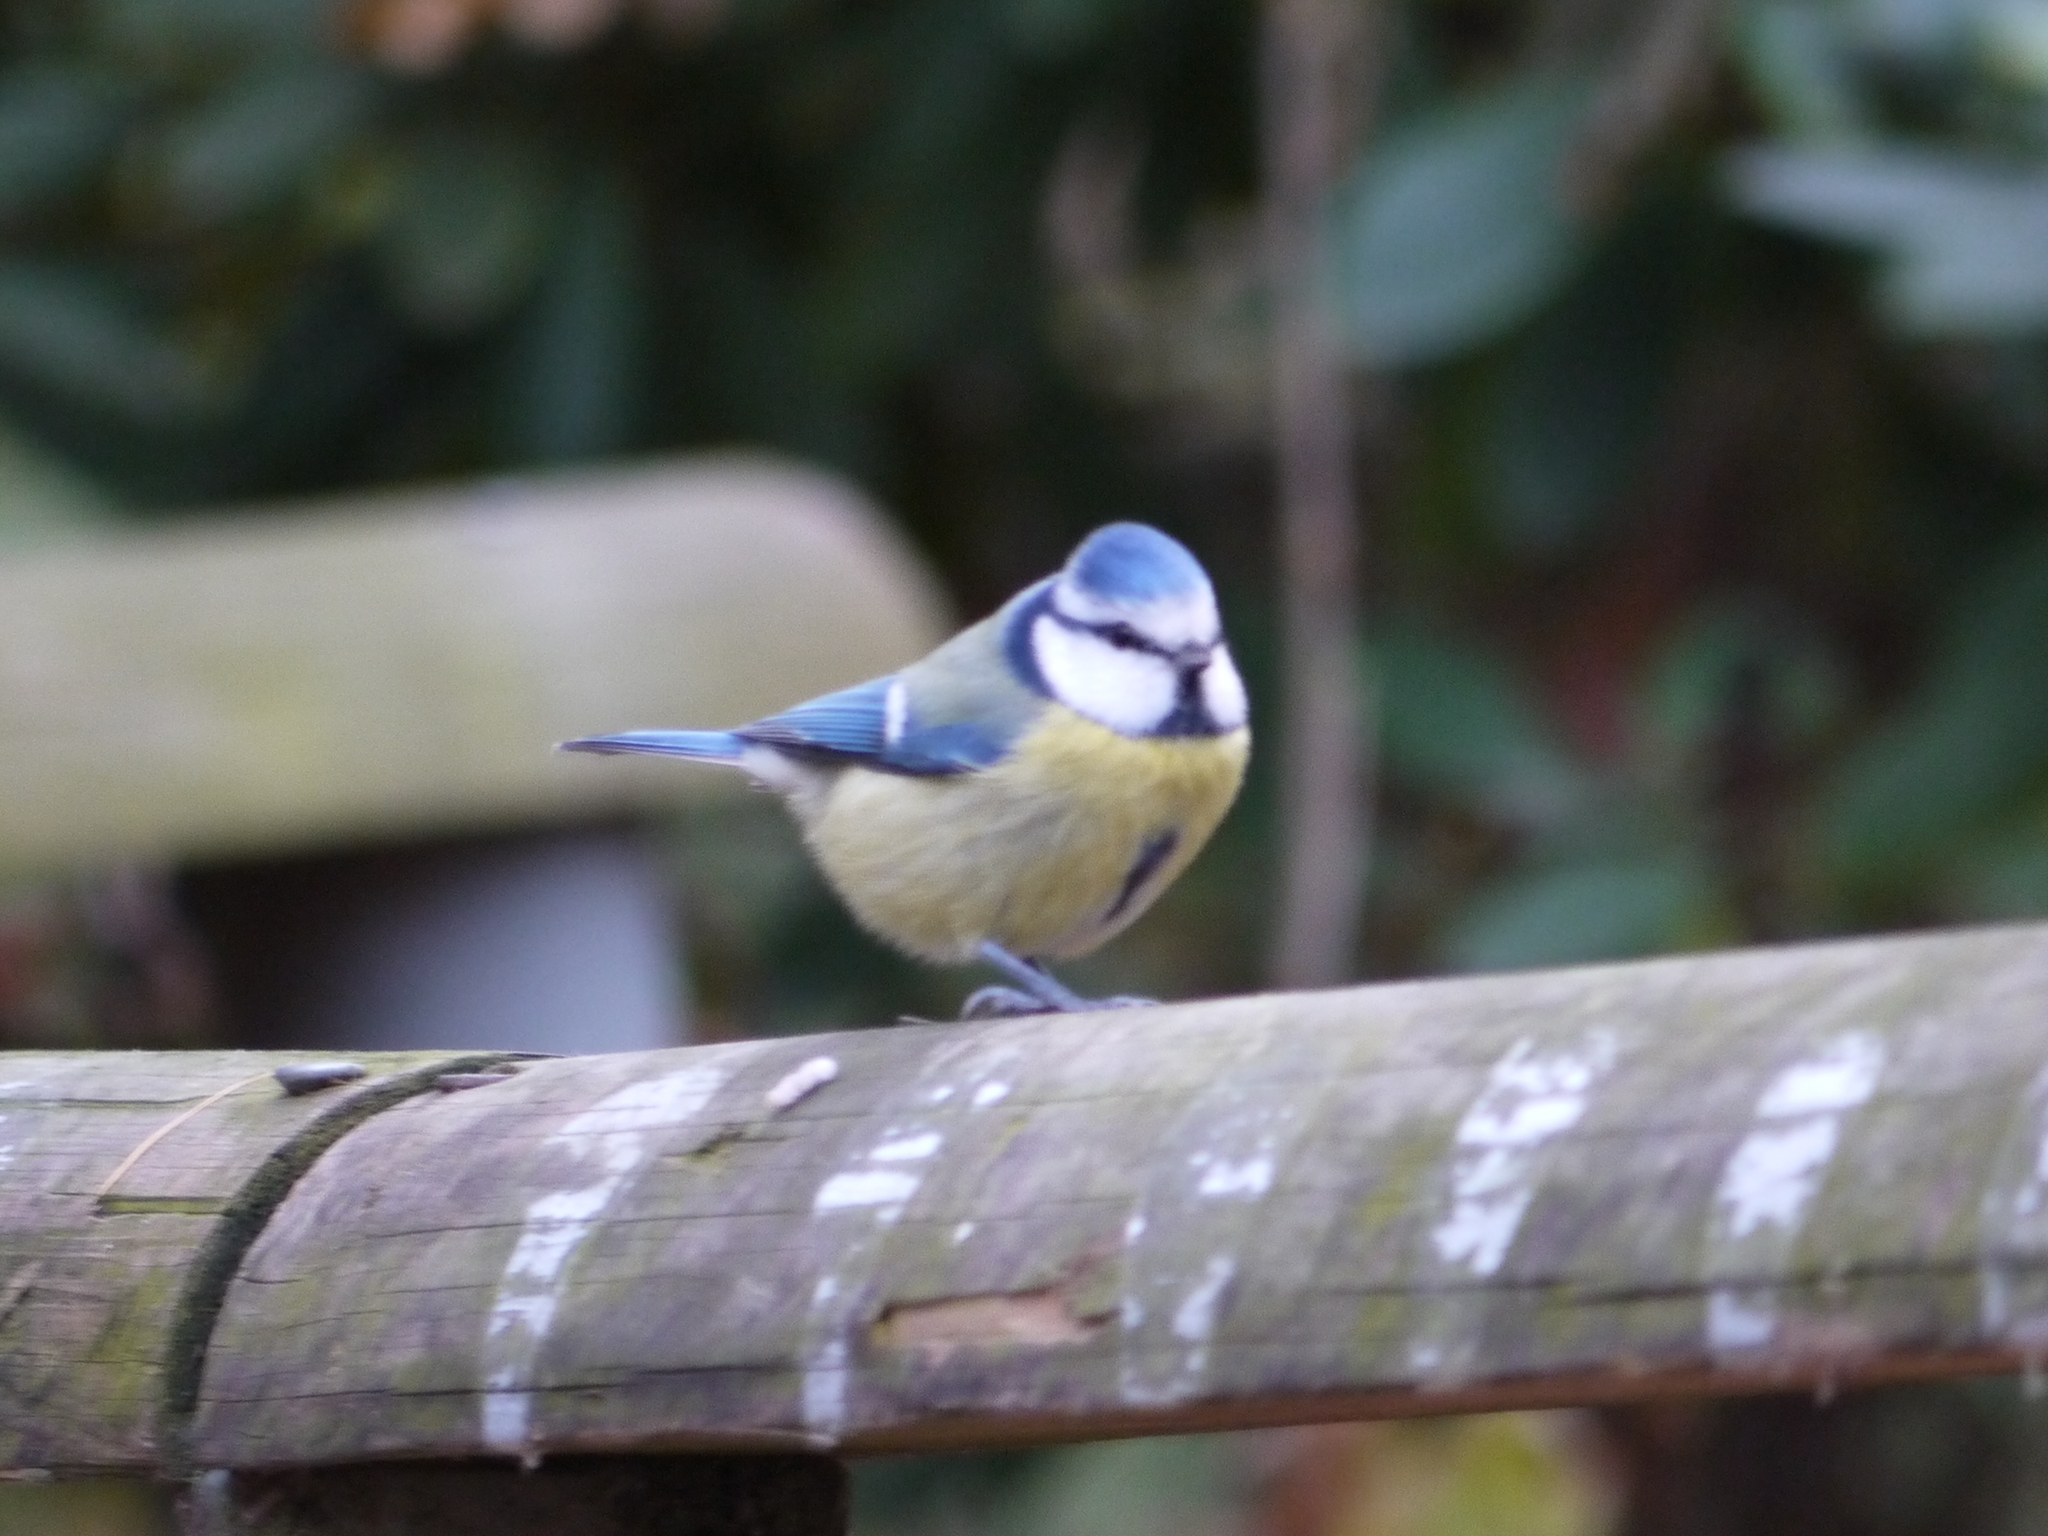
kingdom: Animalia
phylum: Chordata
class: Aves
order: Passeriformes
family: Paridae
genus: Cyanistes
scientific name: Cyanistes caeruleus
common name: Eurasian blue tit
